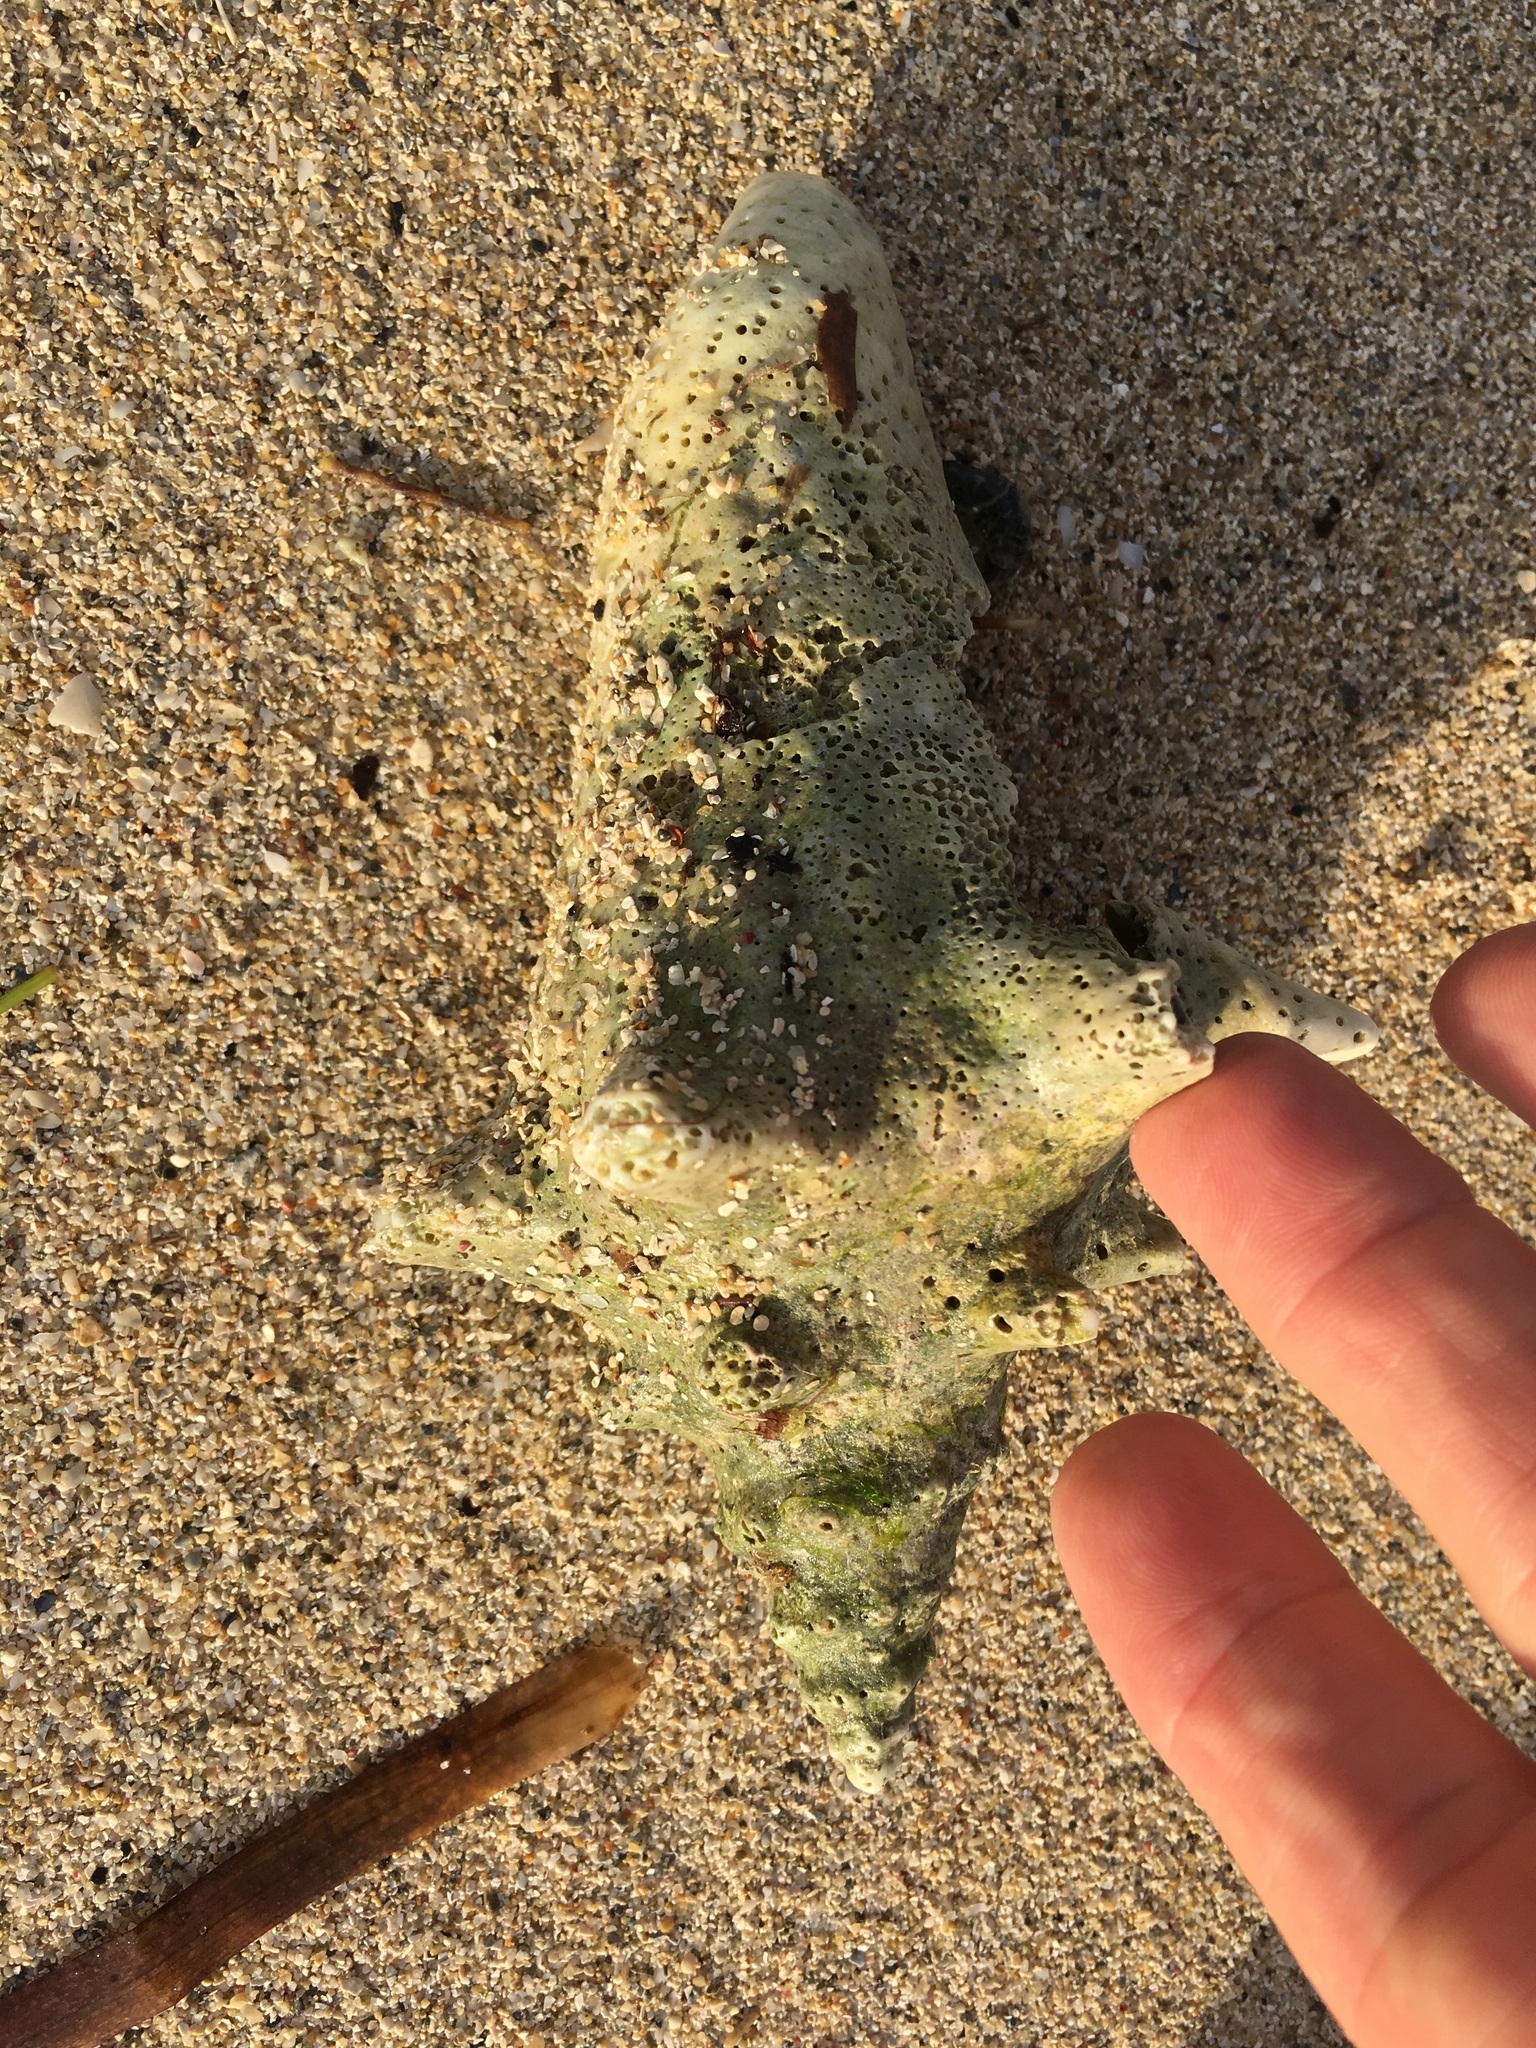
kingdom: Animalia
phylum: Mollusca
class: Gastropoda
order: Littorinimorpha
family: Strombidae
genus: Aliger
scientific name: Aliger gigas
